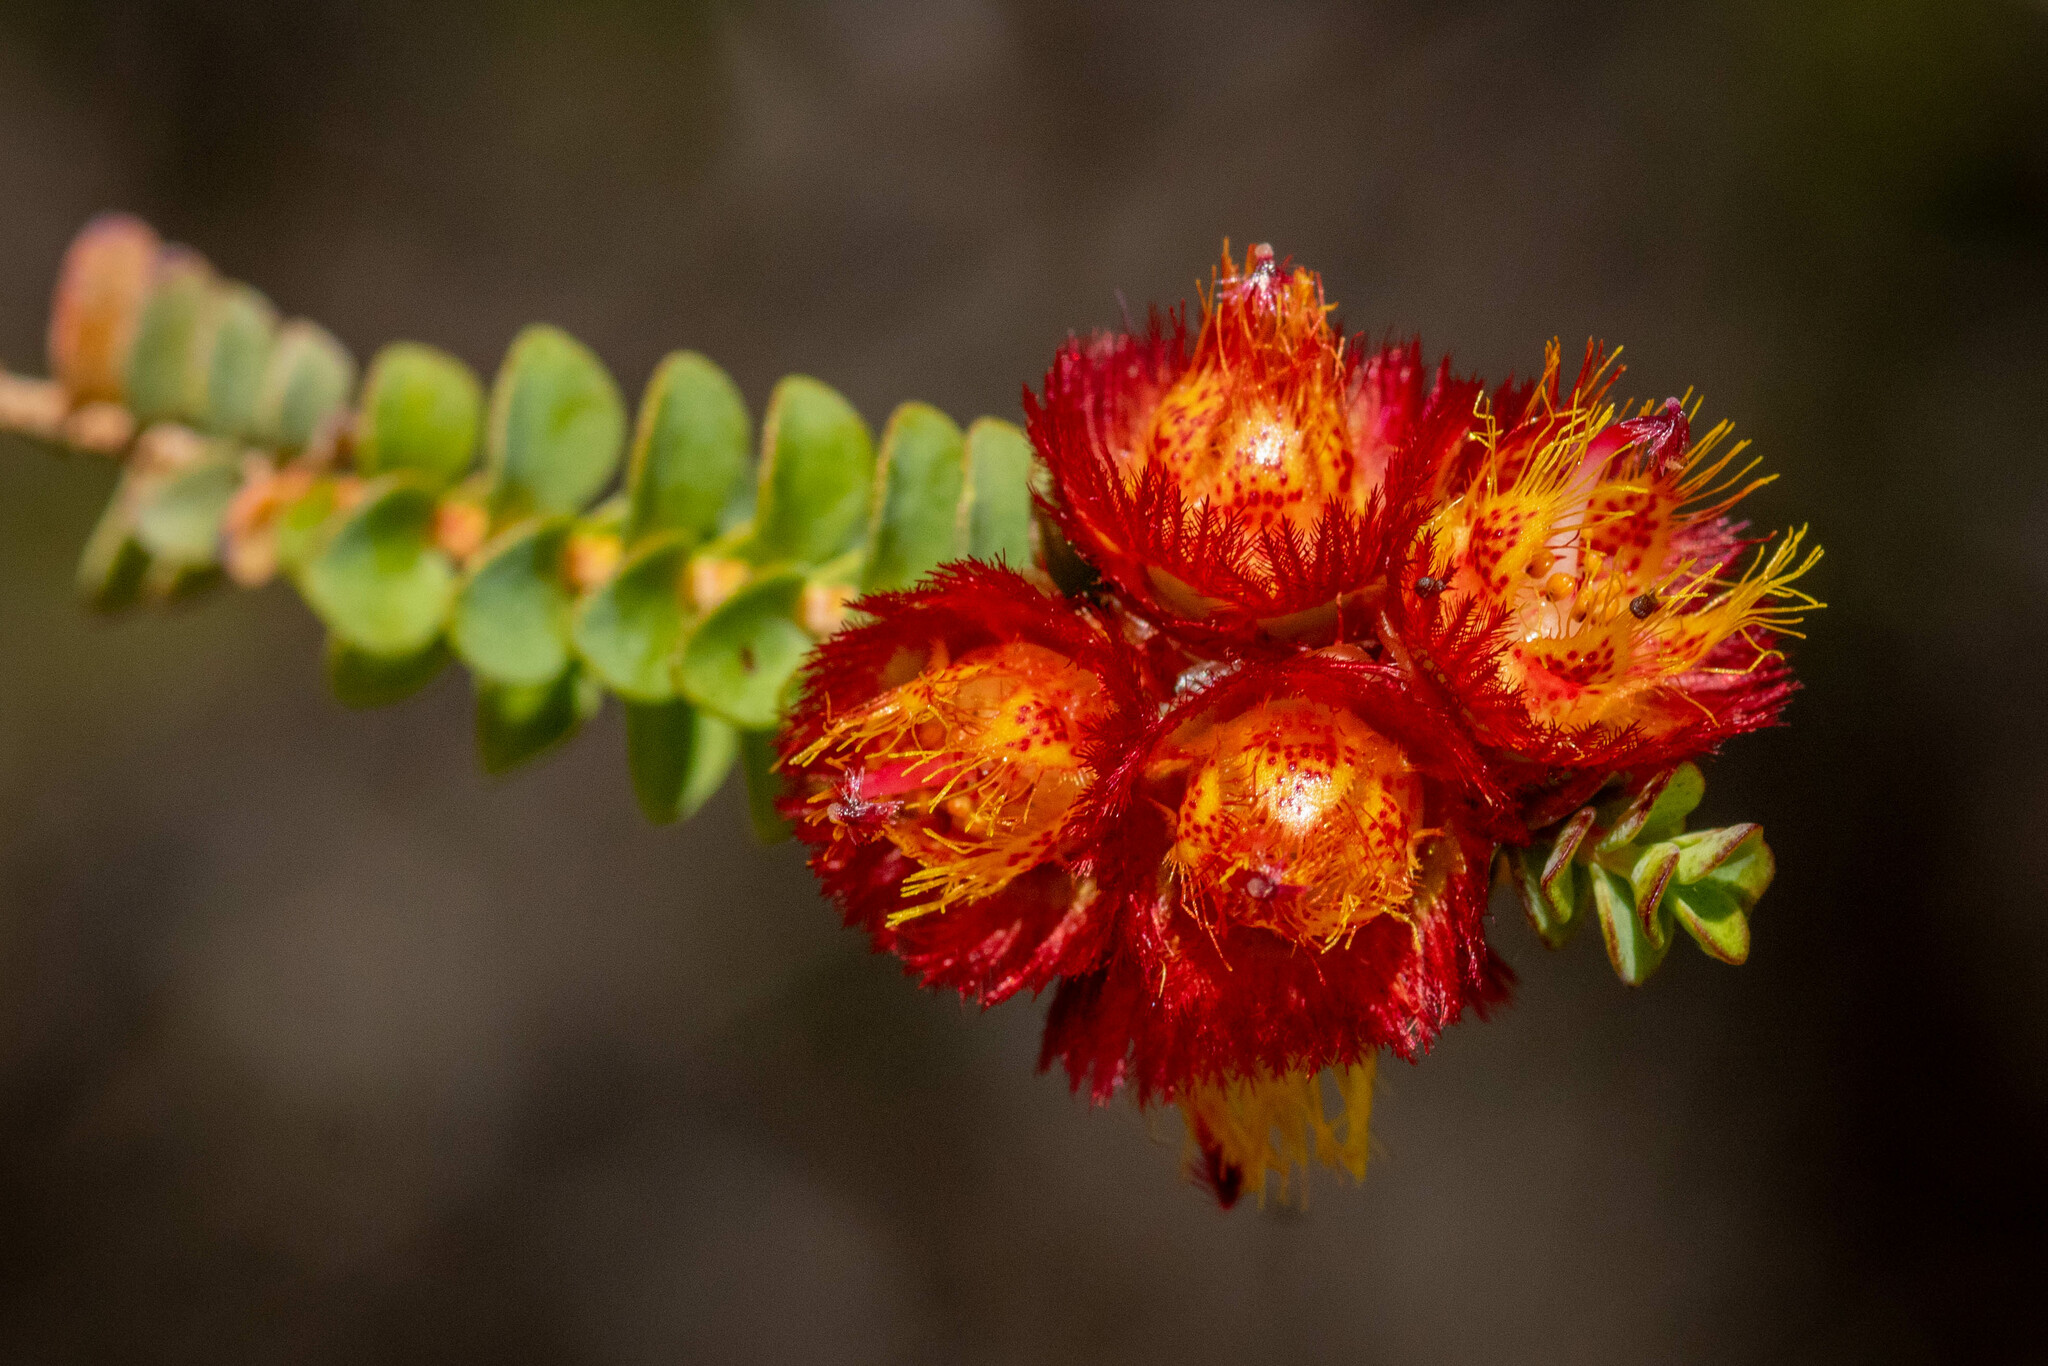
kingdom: Plantae
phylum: Tracheophyta
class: Magnoliopsida
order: Myrtales
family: Myrtaceae
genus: Verticordia
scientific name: Verticordia dichroma
